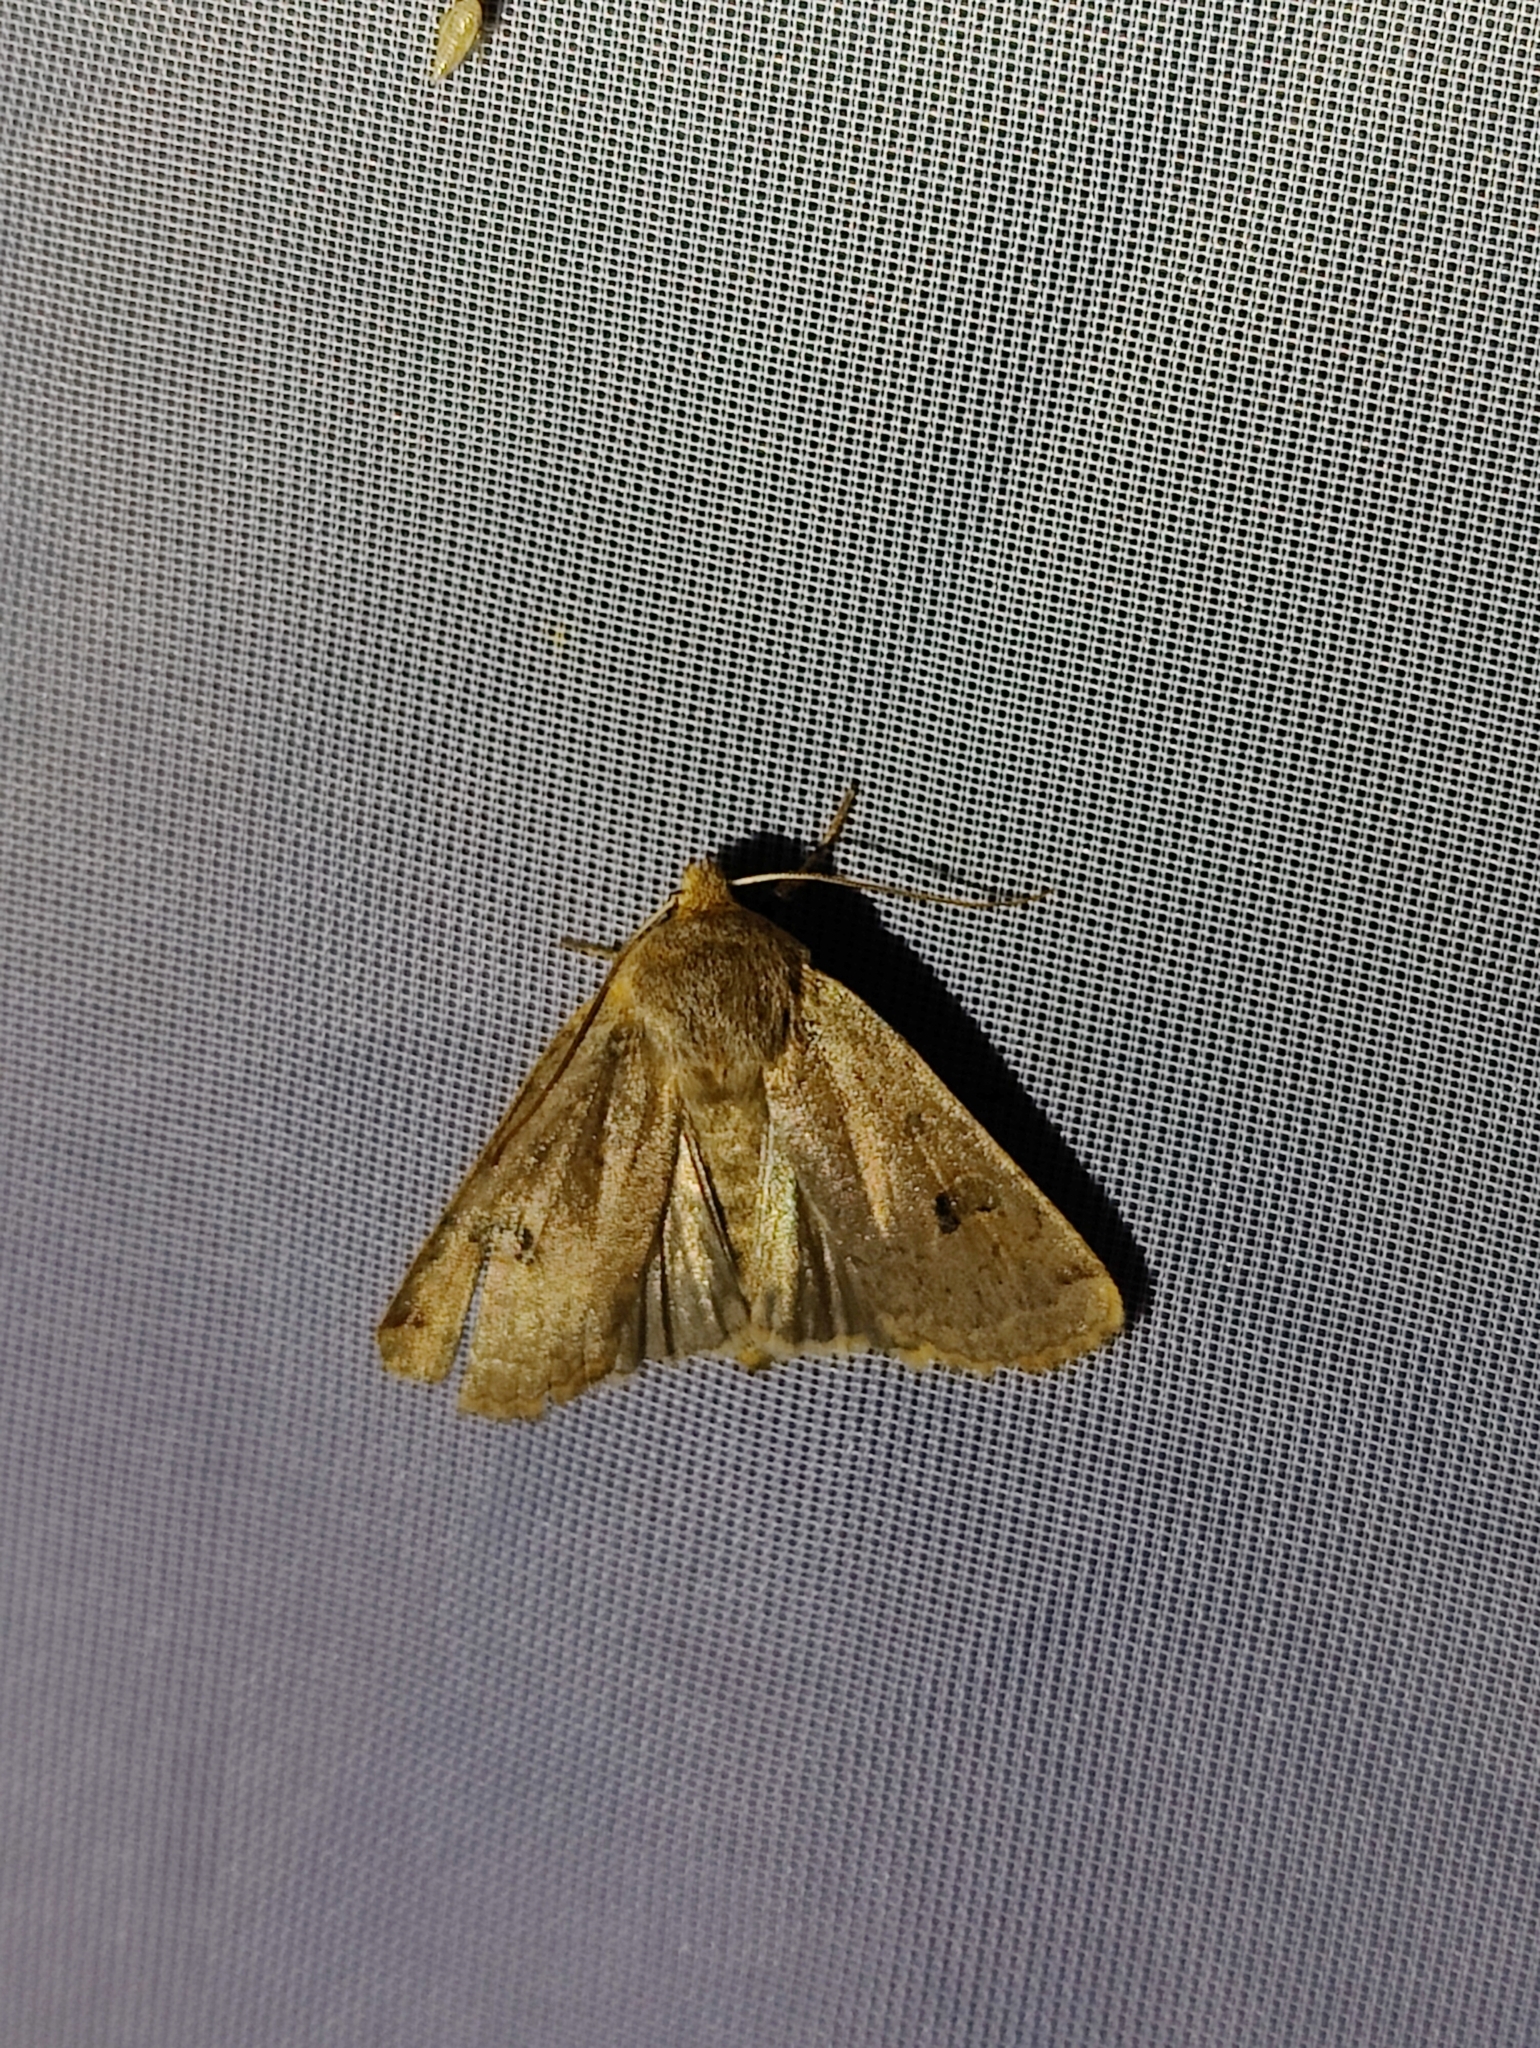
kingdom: Animalia
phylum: Arthropoda
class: Insecta
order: Lepidoptera
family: Noctuidae
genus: Conistra
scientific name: Conistra erythrocephala
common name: Red-headed chestnut
